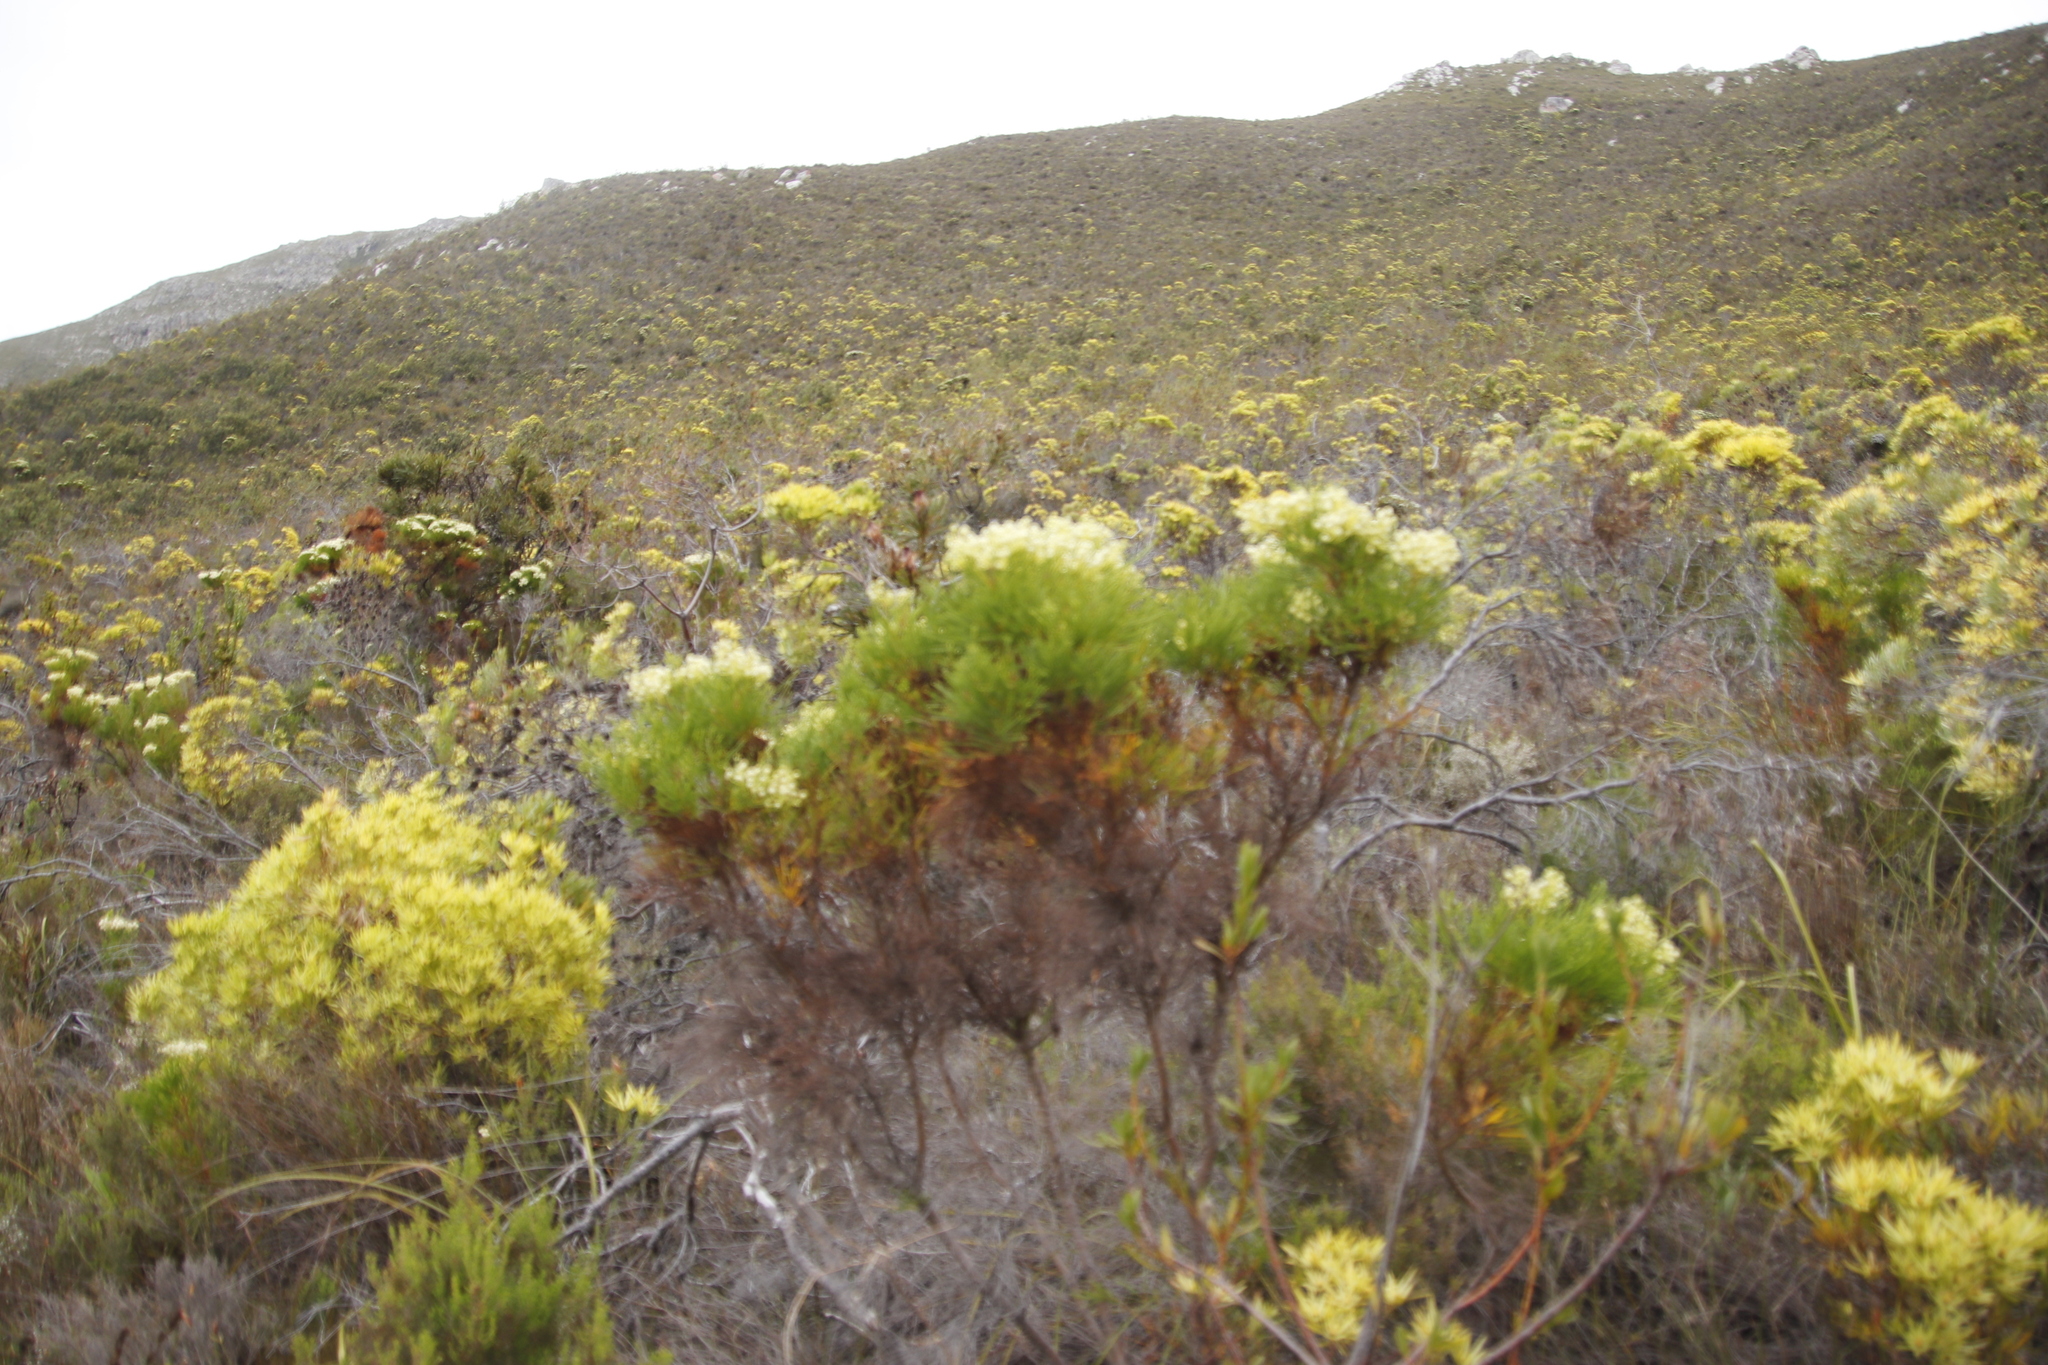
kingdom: Plantae
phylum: Tracheophyta
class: Magnoliopsida
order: Bruniales
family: Bruniaceae
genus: Berzelia
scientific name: Berzelia lanuginosa
